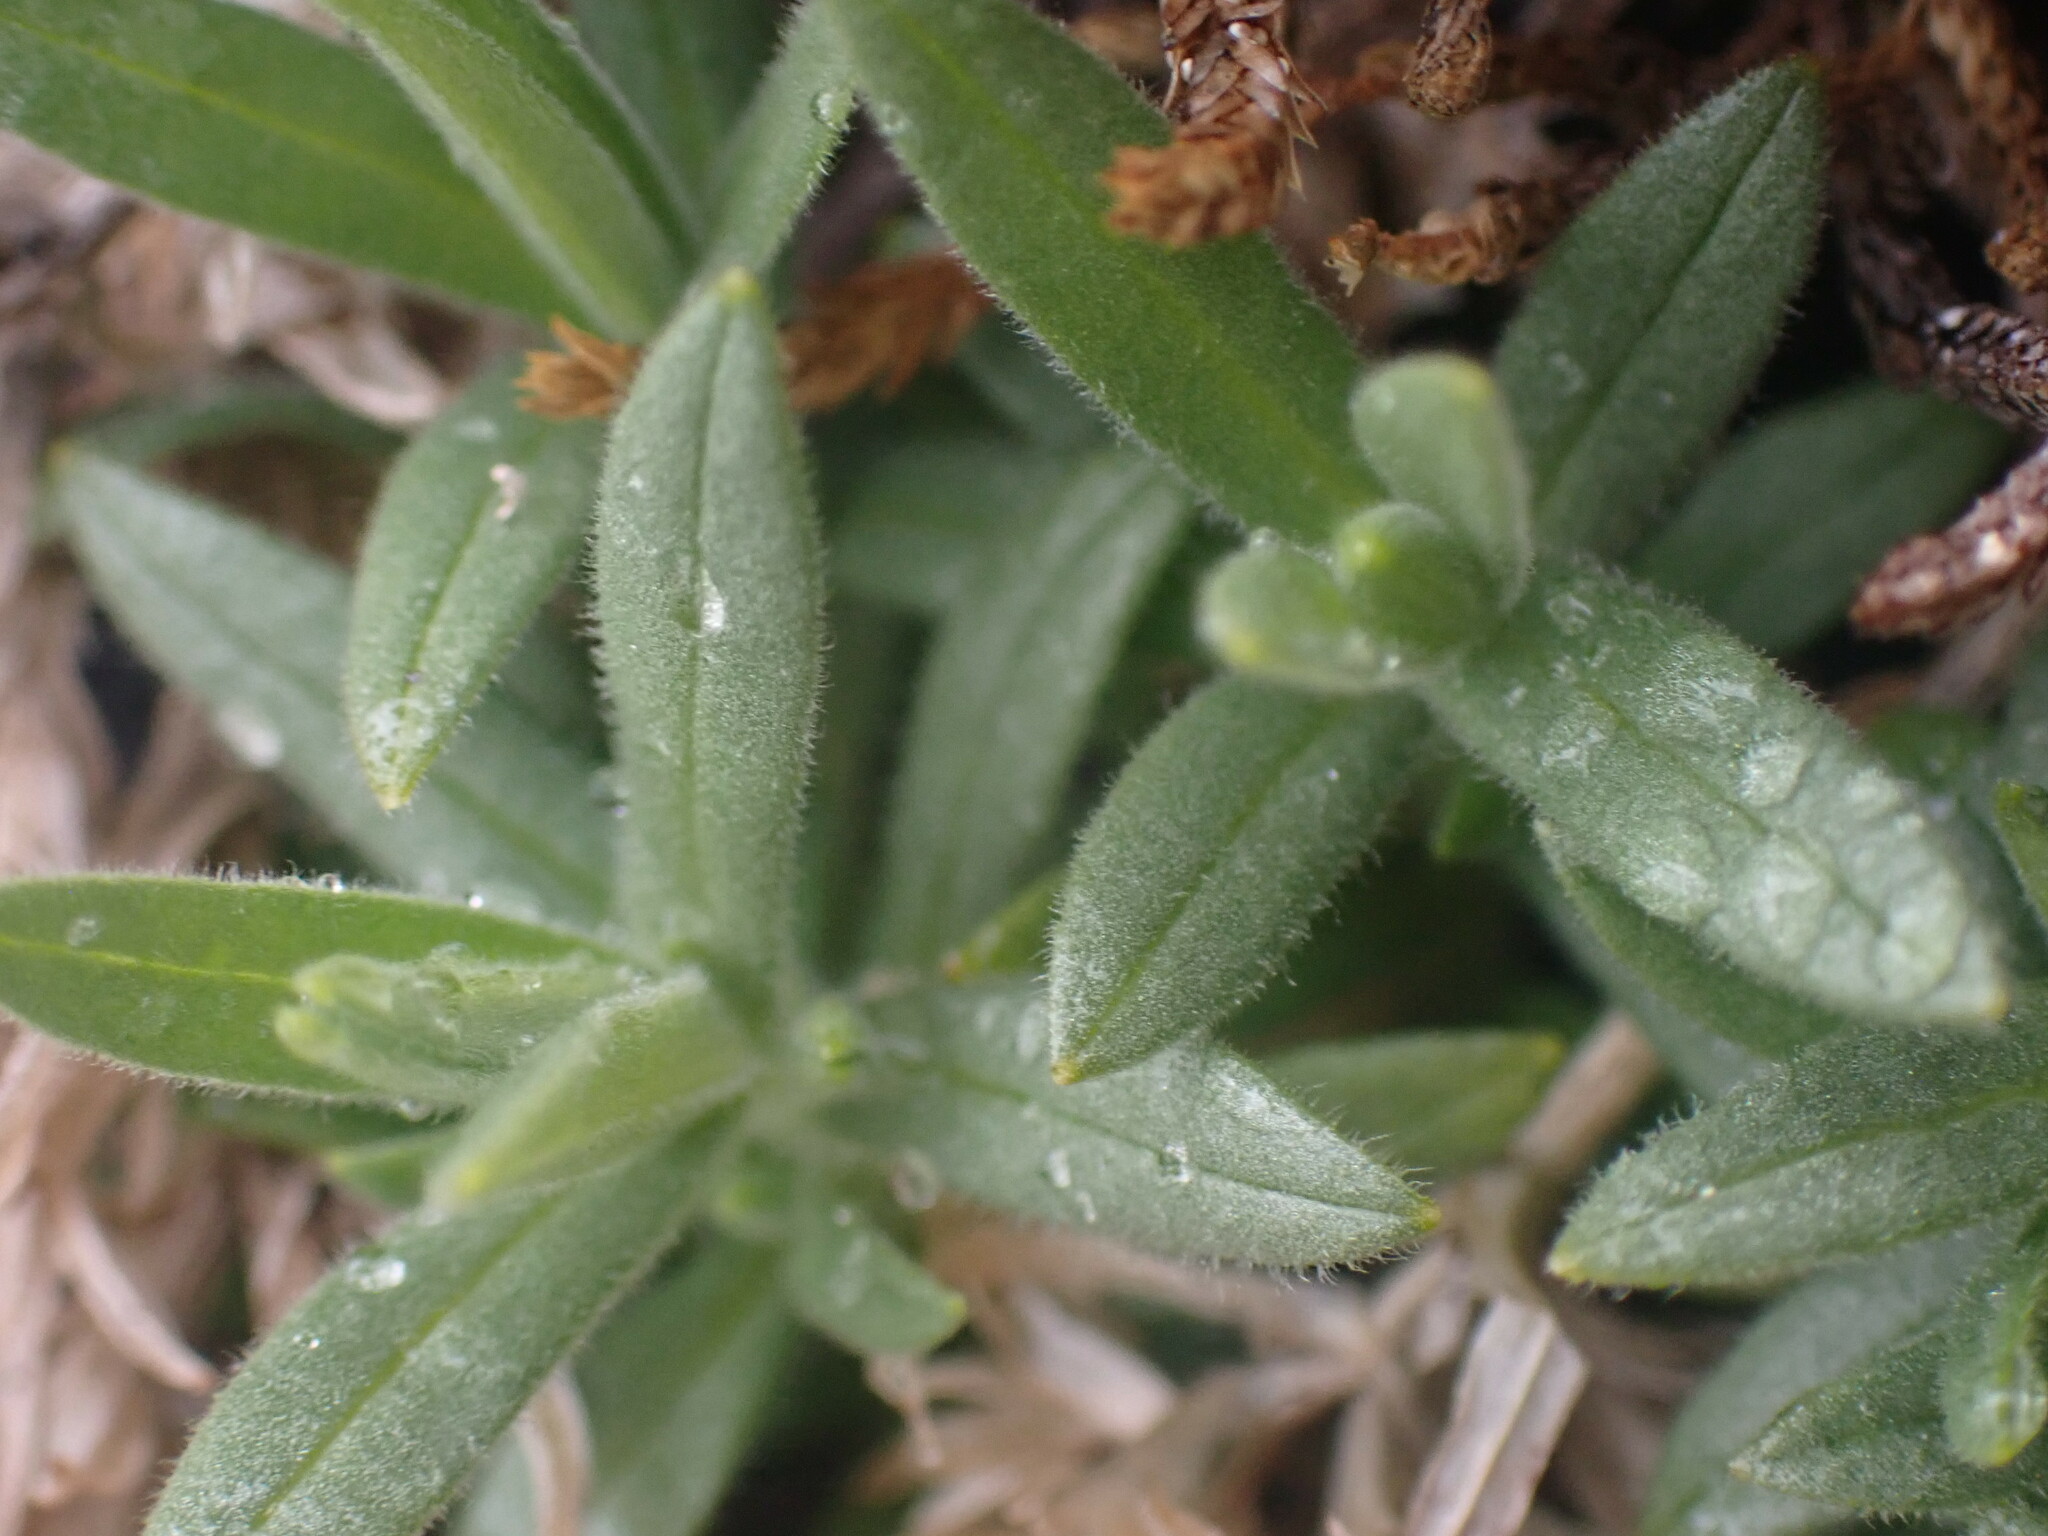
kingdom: Plantae
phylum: Tracheophyta
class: Magnoliopsida
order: Caryophyllales
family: Caryophyllaceae
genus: Cerastium
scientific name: Cerastium arvense
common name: Field mouse-ear
